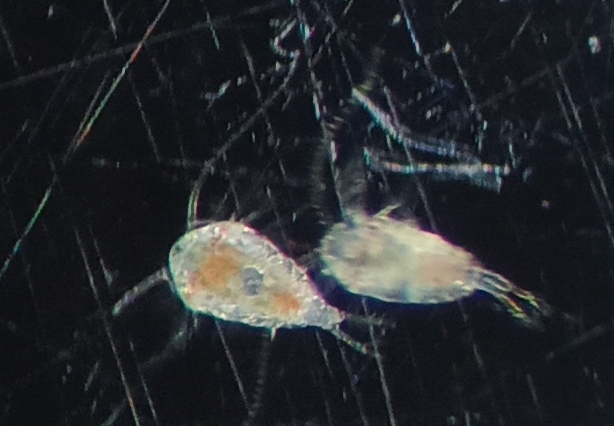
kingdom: Animalia
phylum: Arthropoda
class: Copepoda
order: Calanoida
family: Temoridae
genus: Temora
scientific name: Temora turbinata
